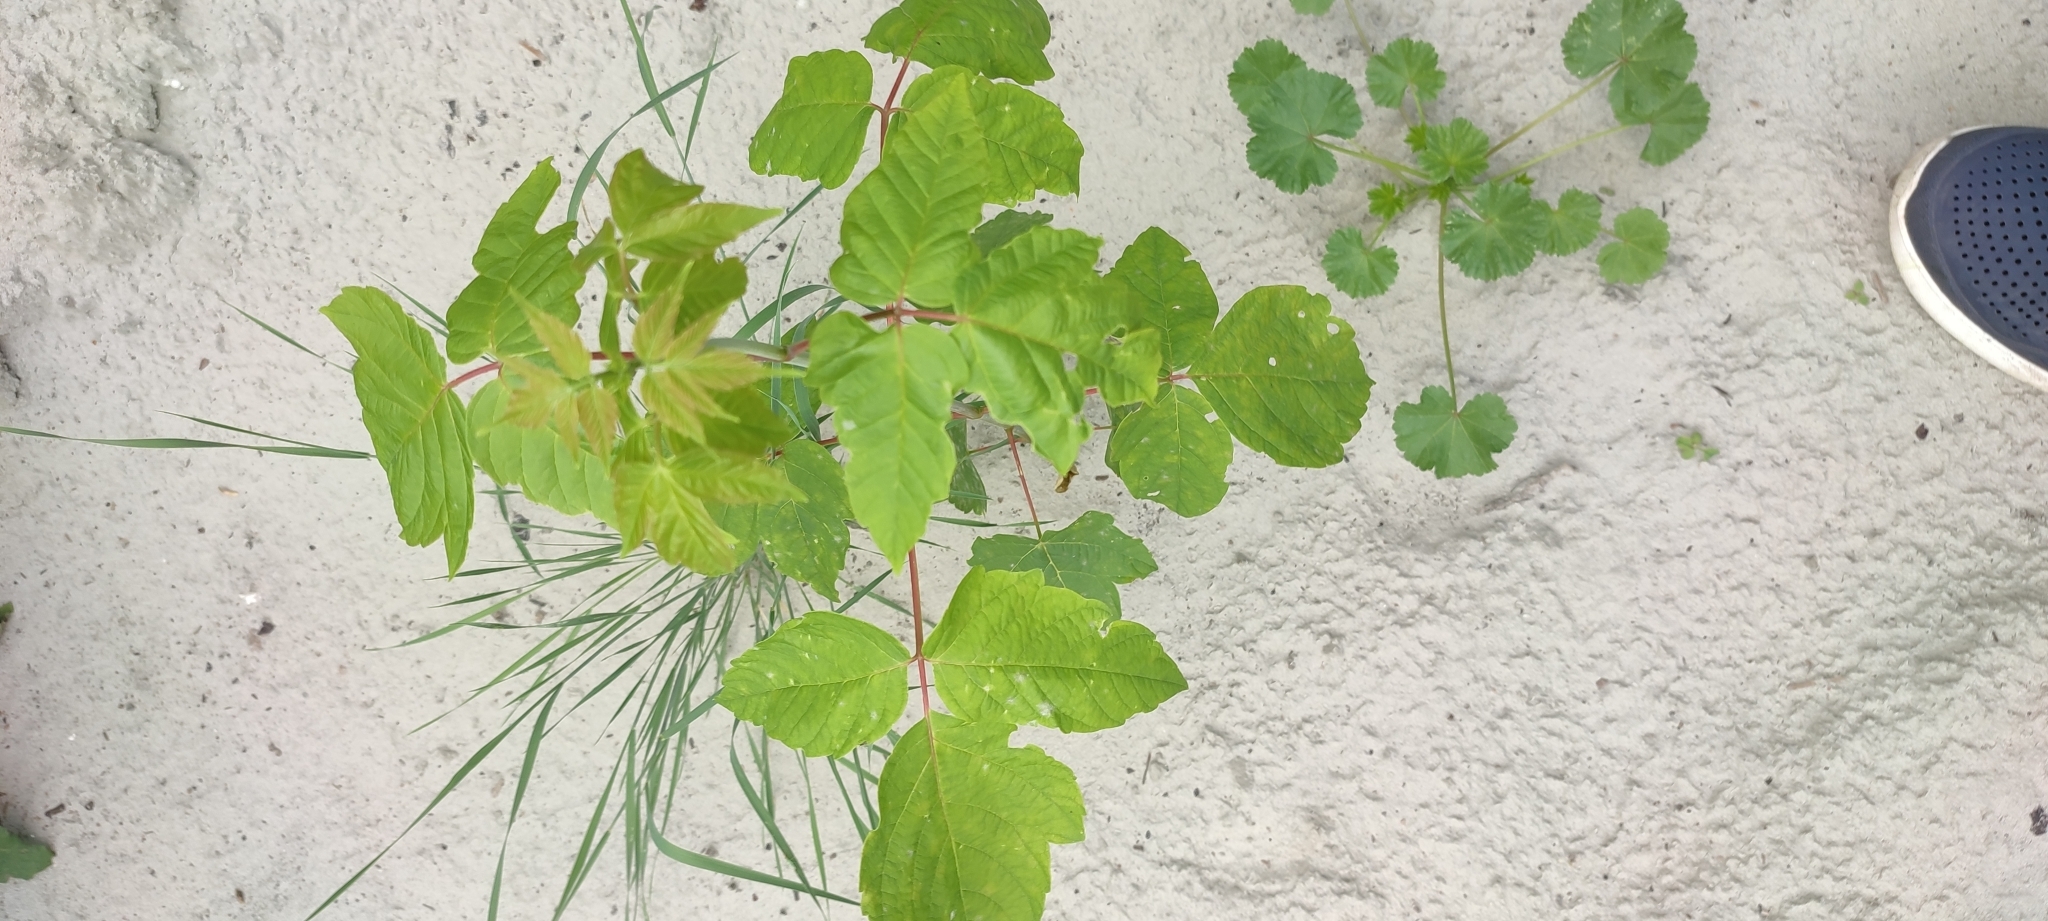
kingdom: Plantae
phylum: Tracheophyta
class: Magnoliopsida
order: Sapindales
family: Sapindaceae
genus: Acer
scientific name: Acer negundo
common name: Ashleaf maple
